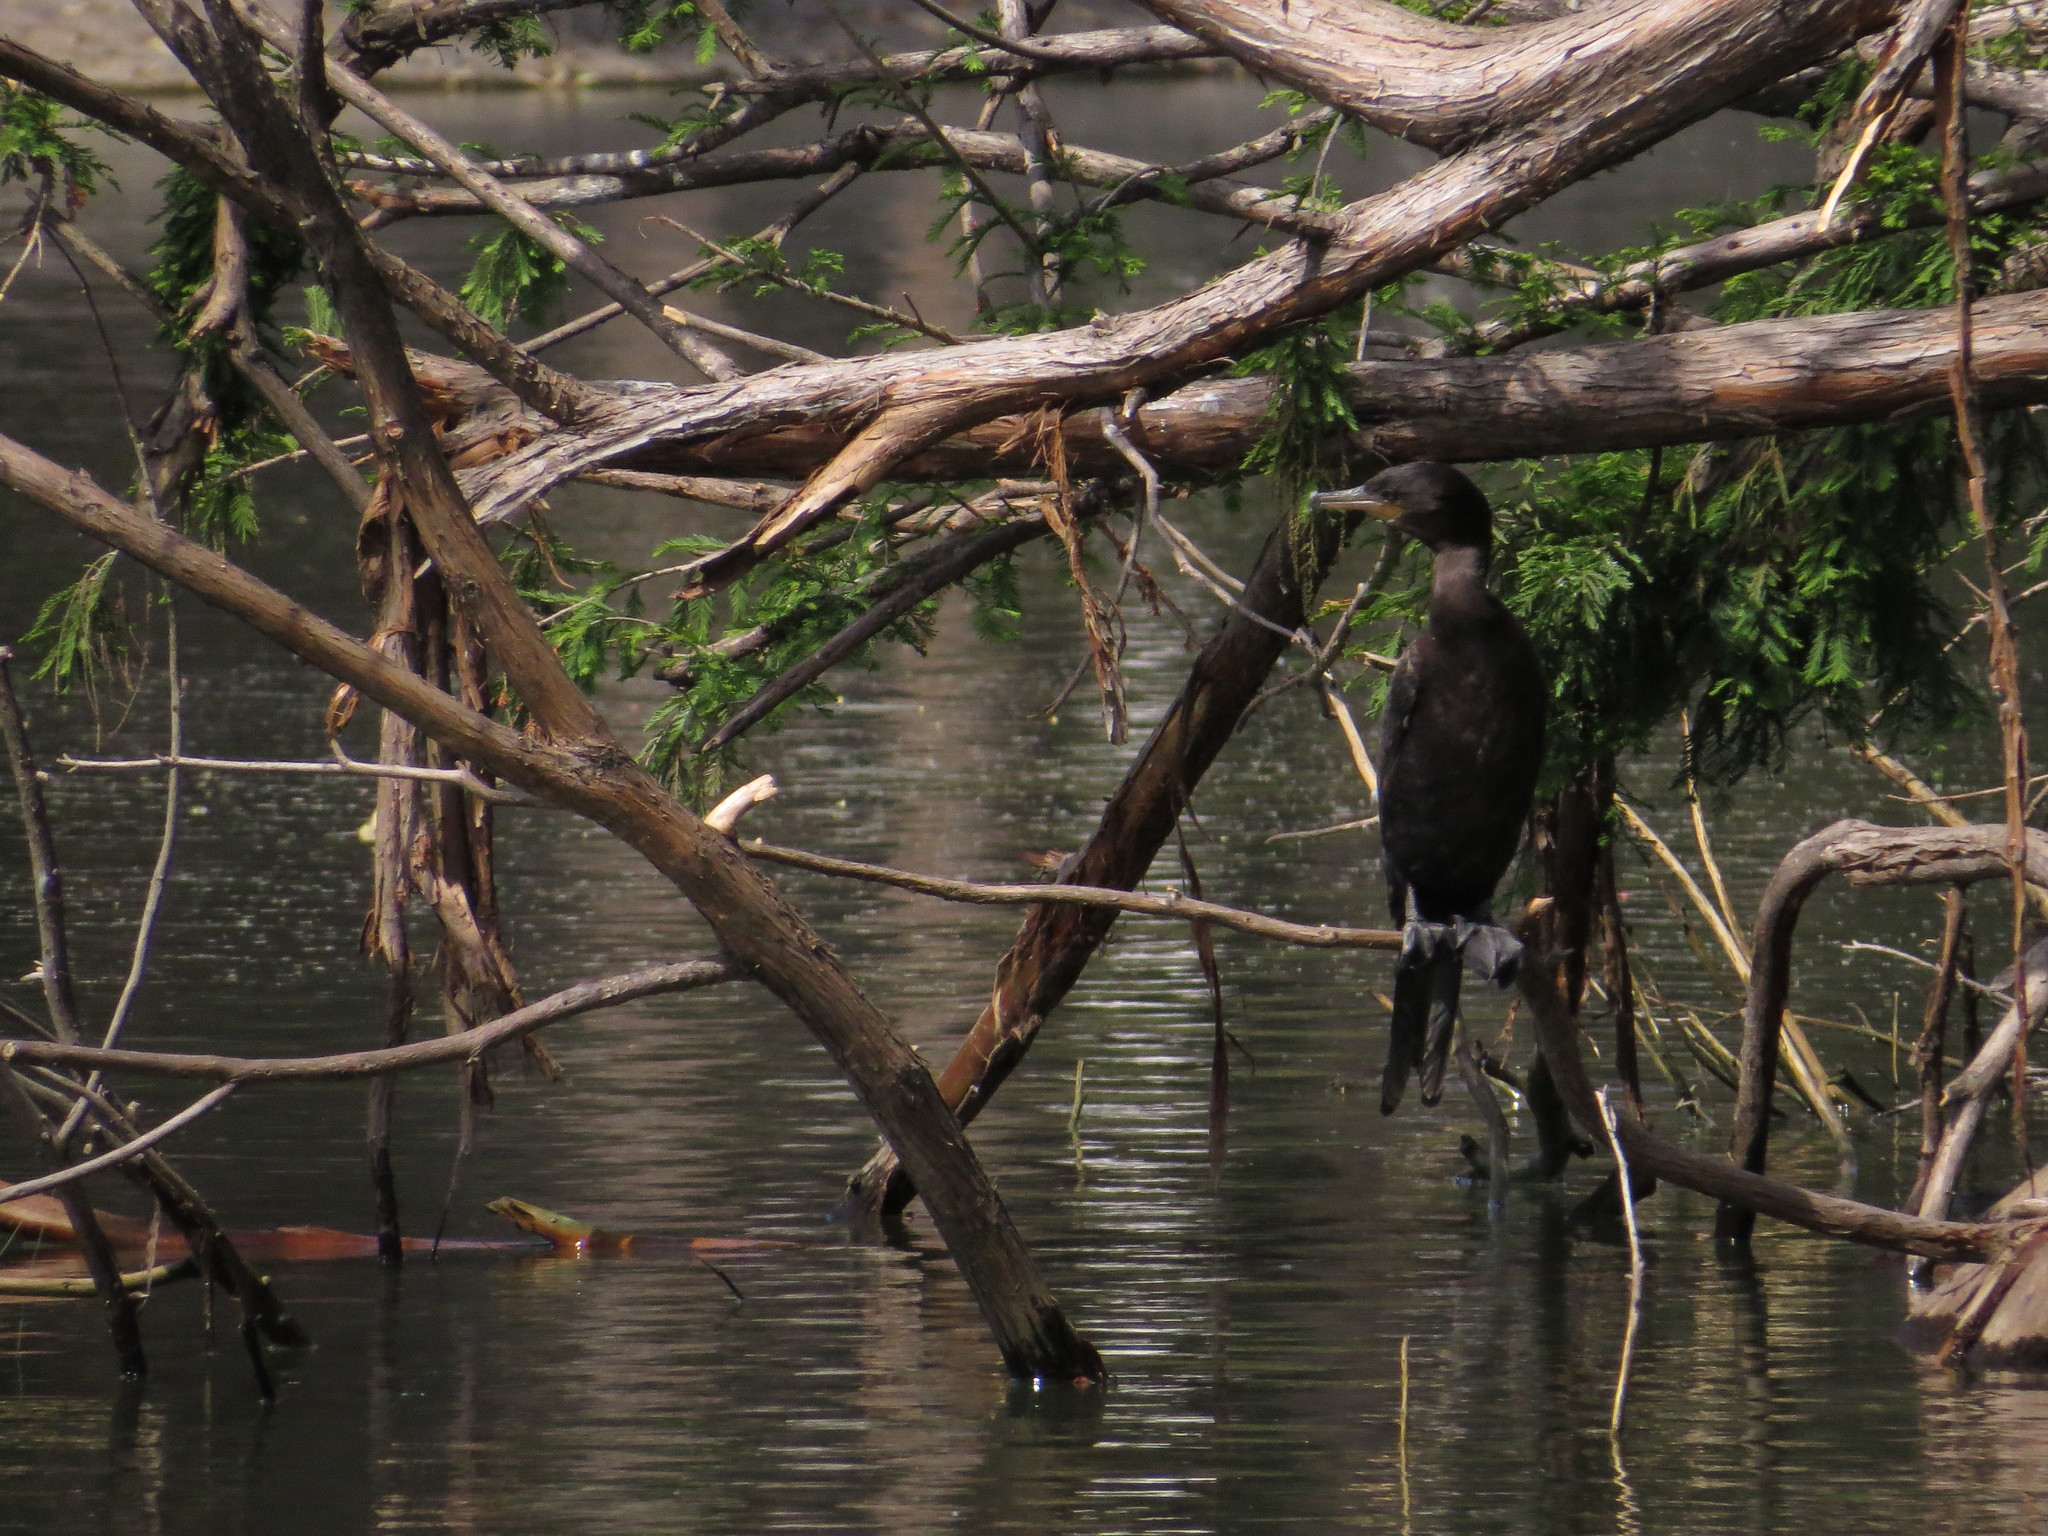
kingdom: Animalia
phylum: Chordata
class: Aves
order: Suliformes
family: Phalacrocoracidae
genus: Phalacrocorax
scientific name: Phalacrocorax brasilianus
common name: Neotropic cormorant
